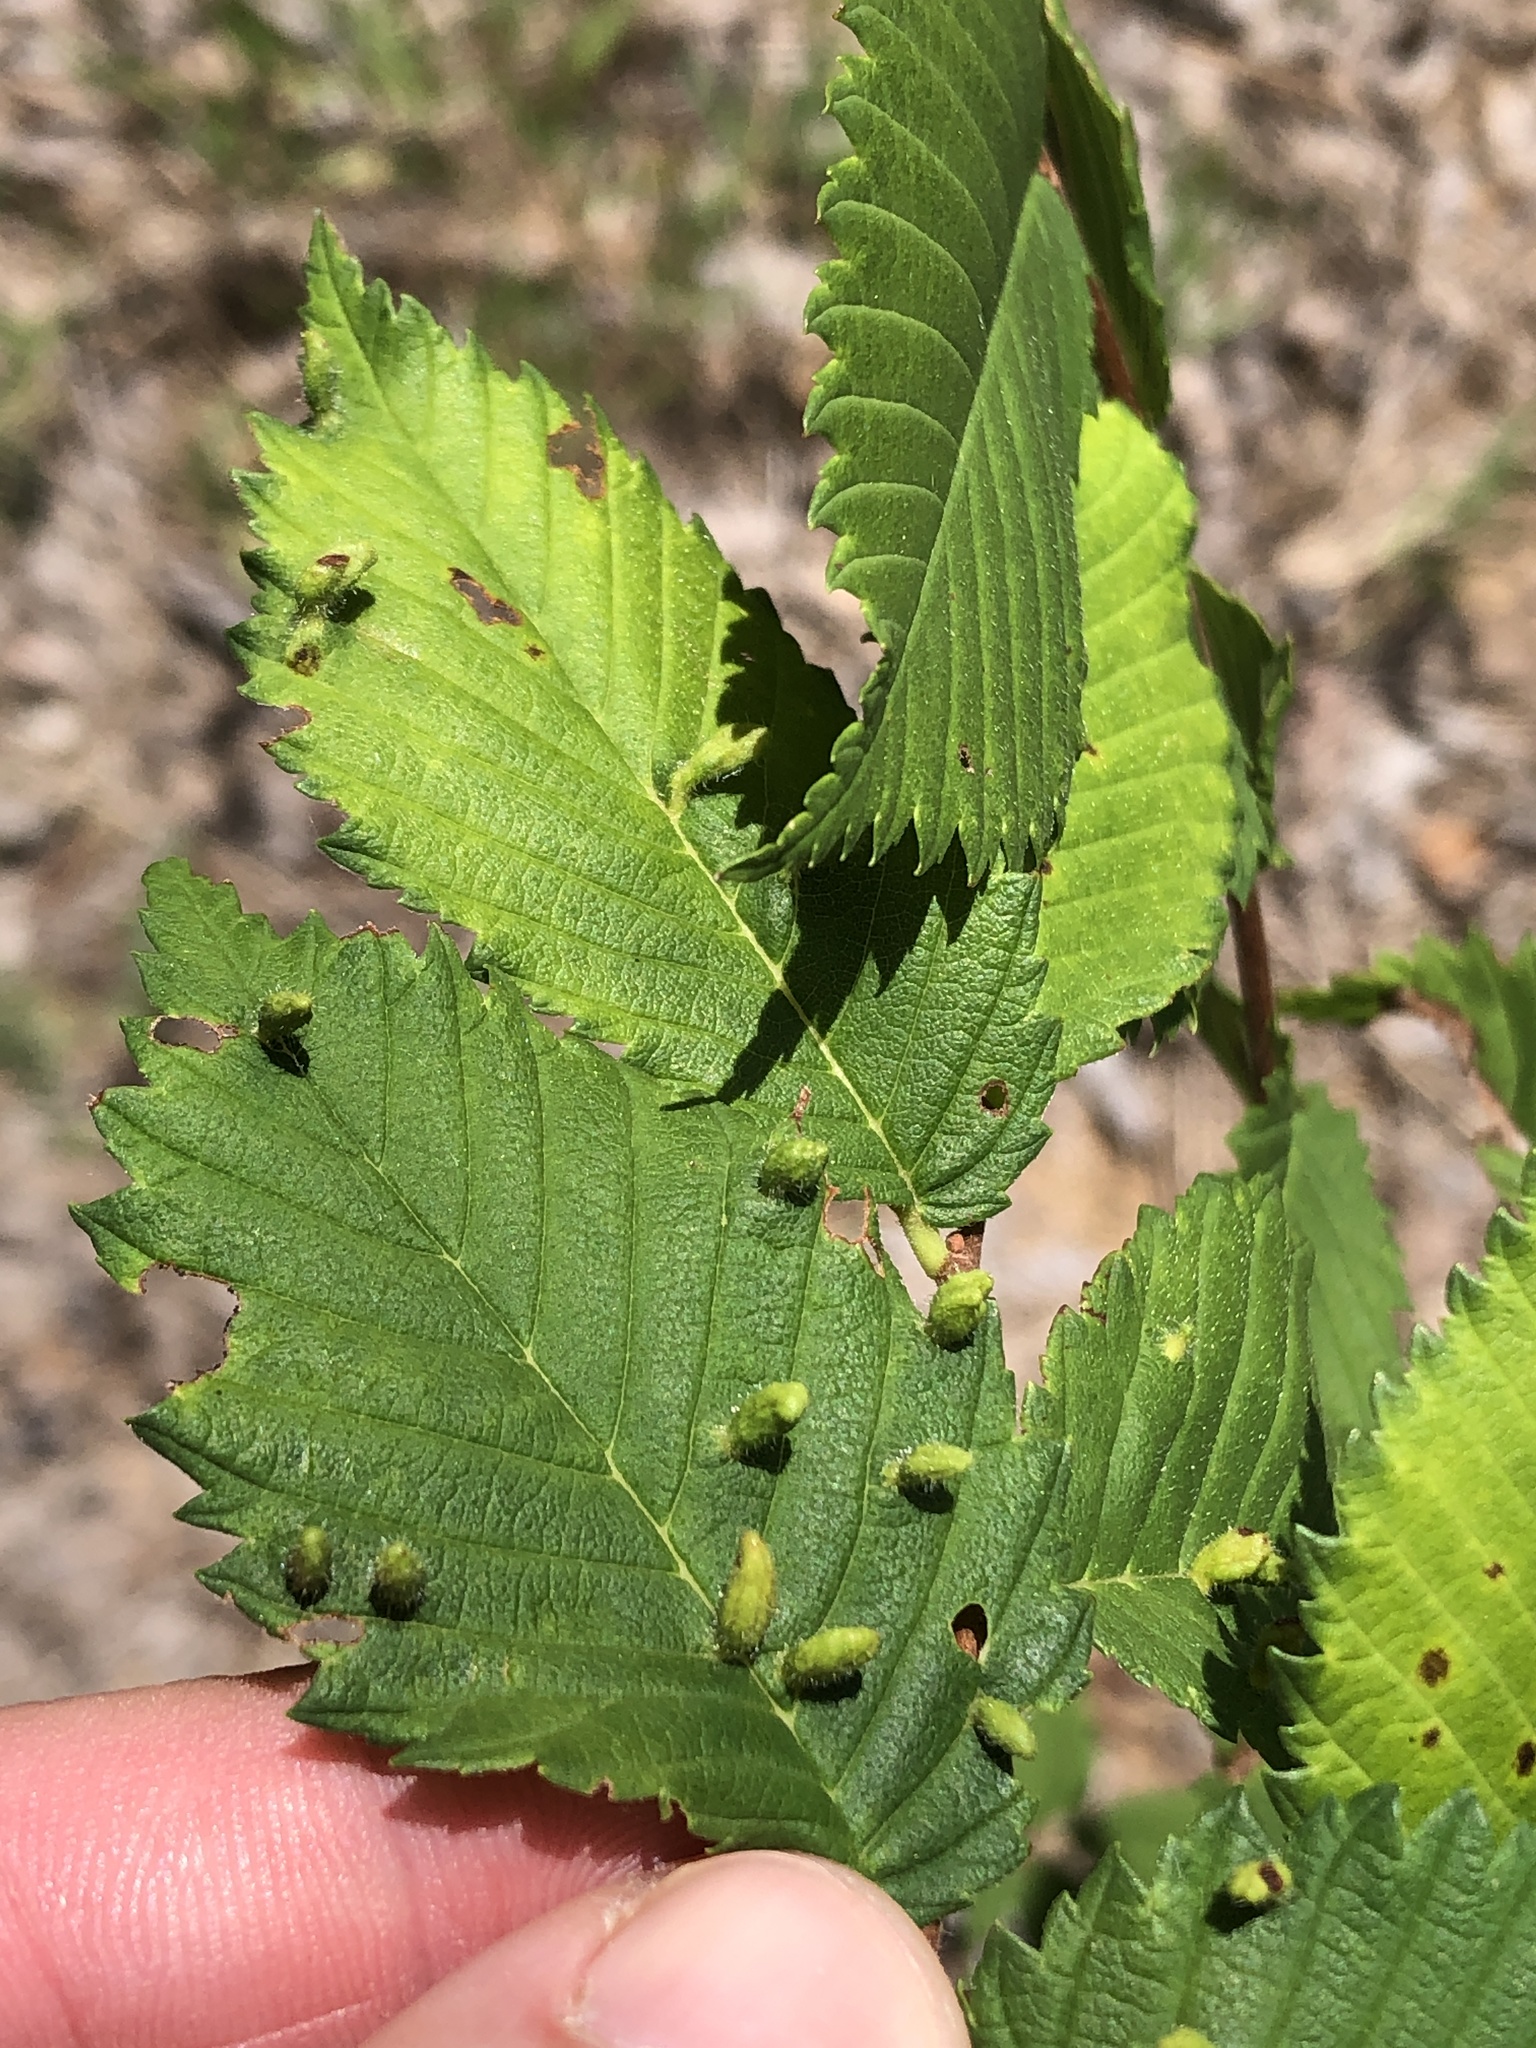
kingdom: Animalia
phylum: Arthropoda
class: Arachnida
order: Trombidiformes
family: Eriophyidae
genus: Aceria
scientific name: Aceria
